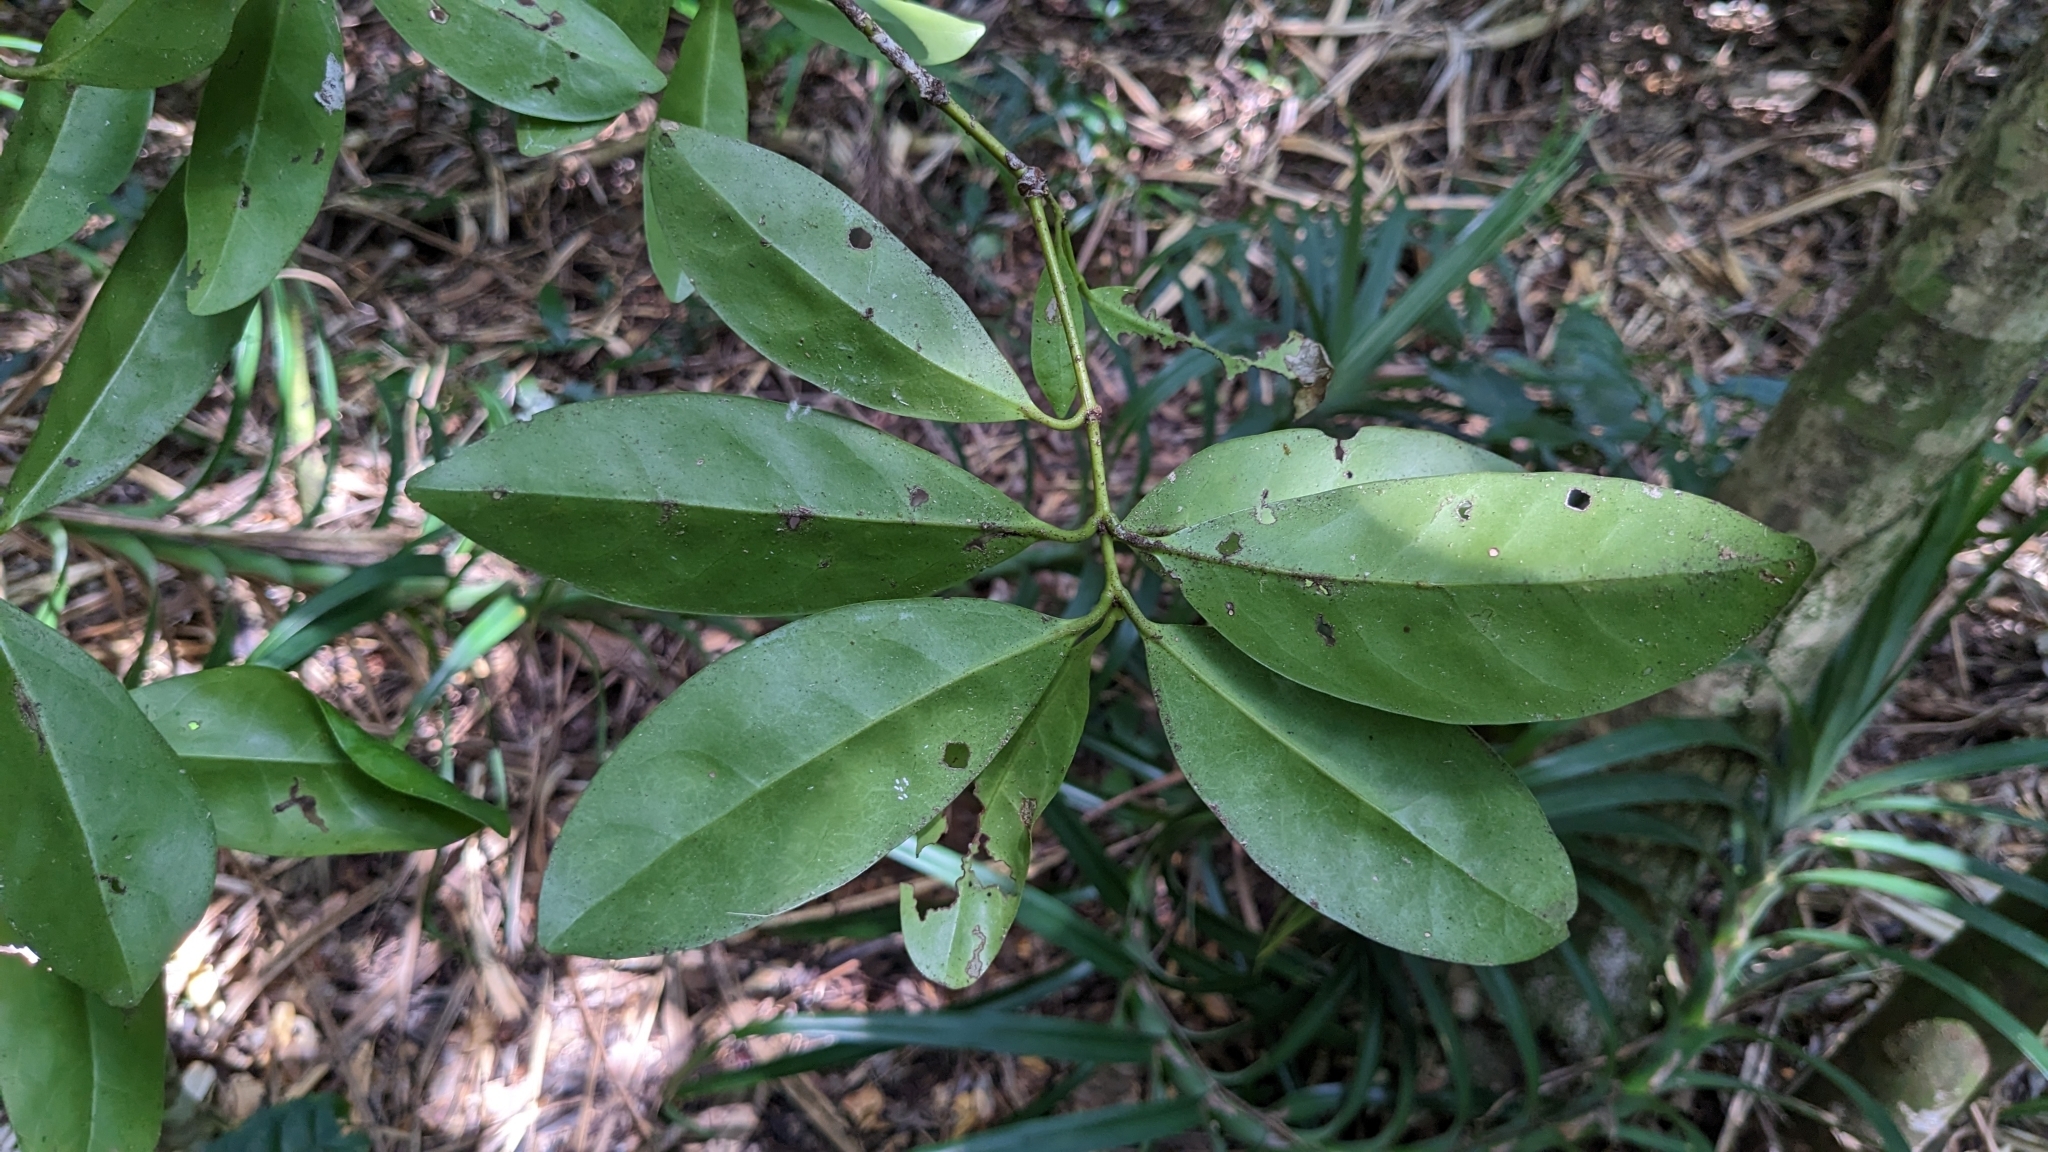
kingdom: Plantae
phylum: Tracheophyta
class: Magnoliopsida
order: Celastrales
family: Celastraceae
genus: Euonymus
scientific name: Euonymus cochinchinensis
